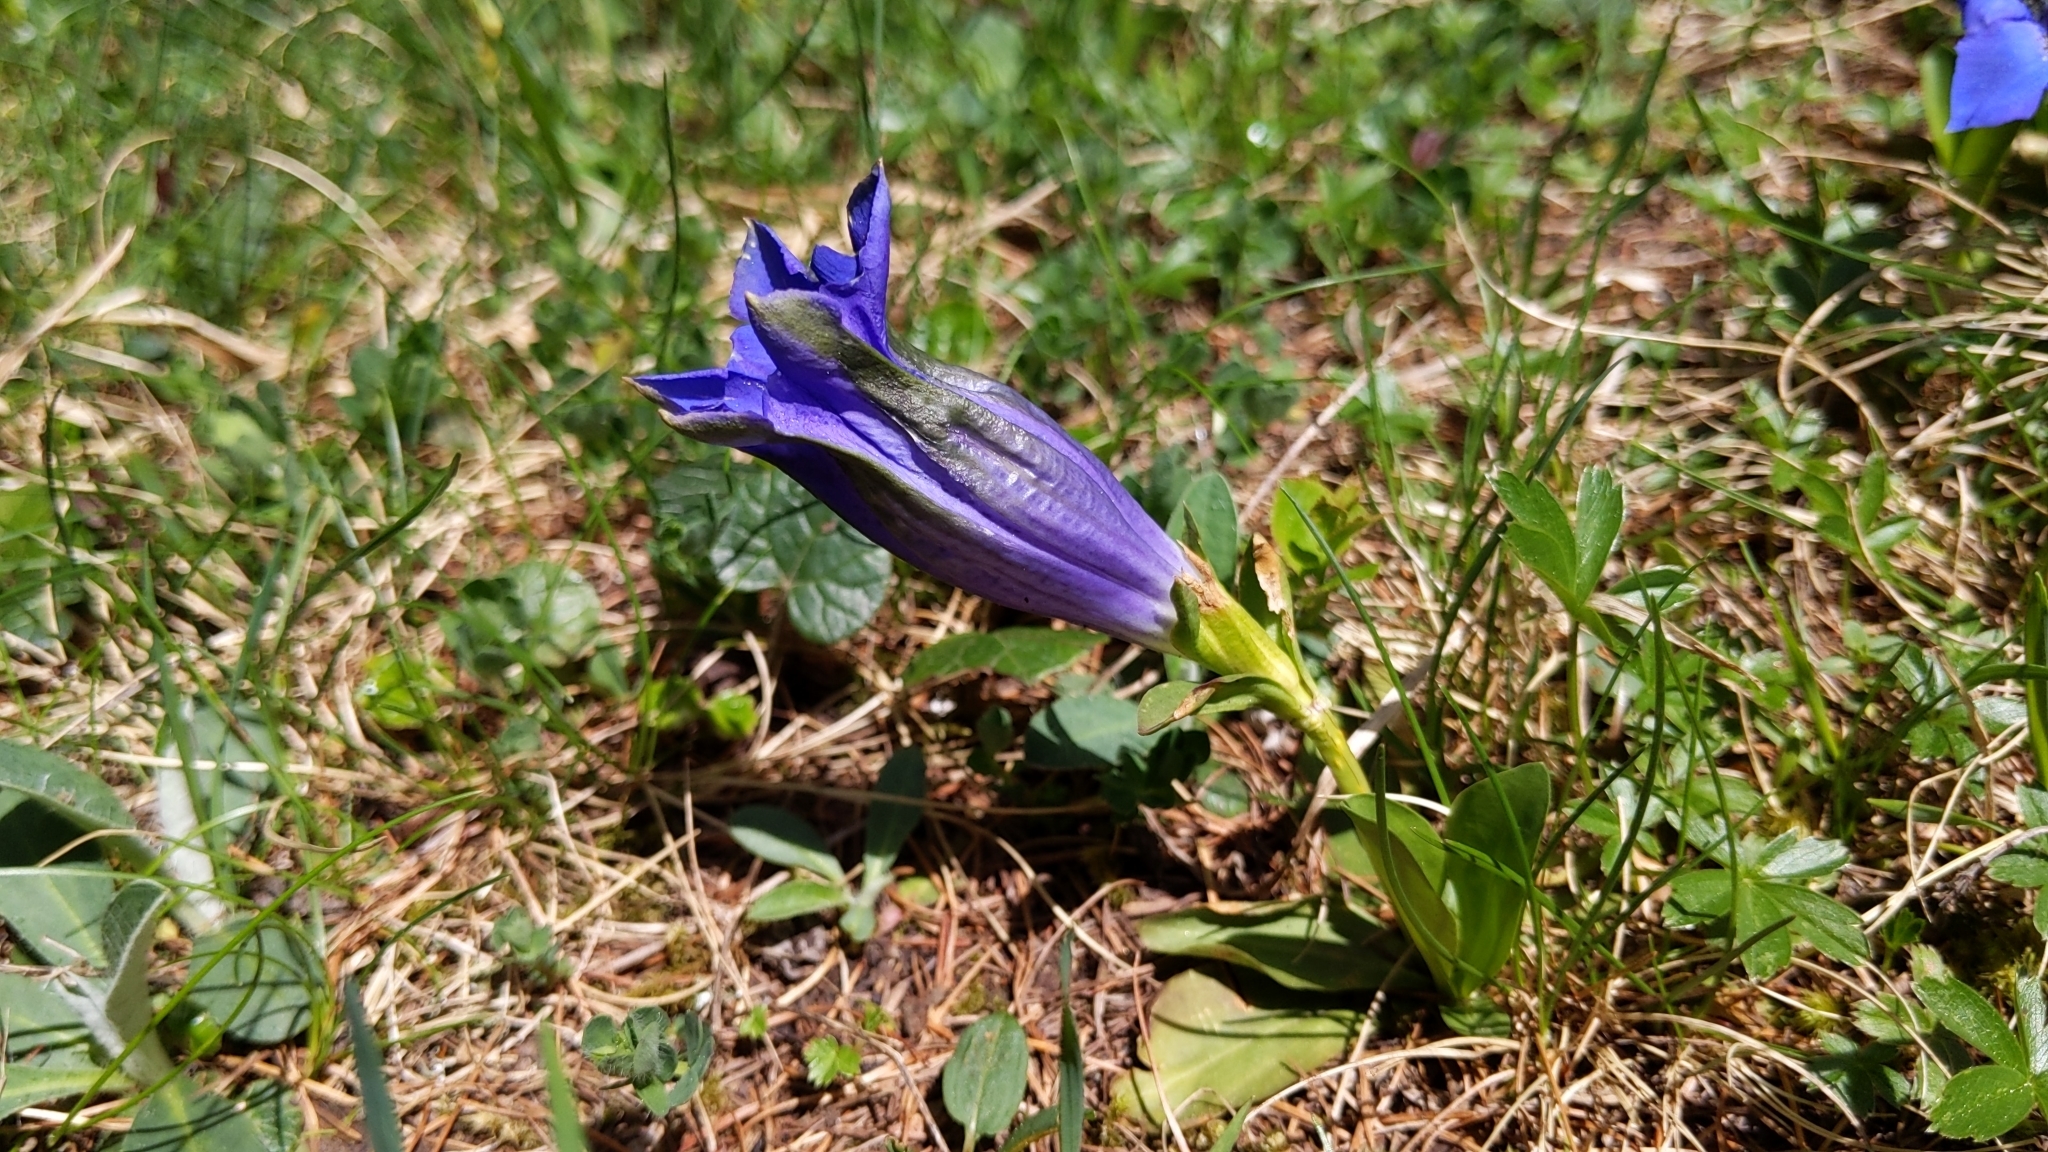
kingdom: Plantae
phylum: Tracheophyta
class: Magnoliopsida
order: Gentianales
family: Gentianaceae
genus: Gentiana
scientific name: Gentiana acaulis
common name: Trumpet gentian
